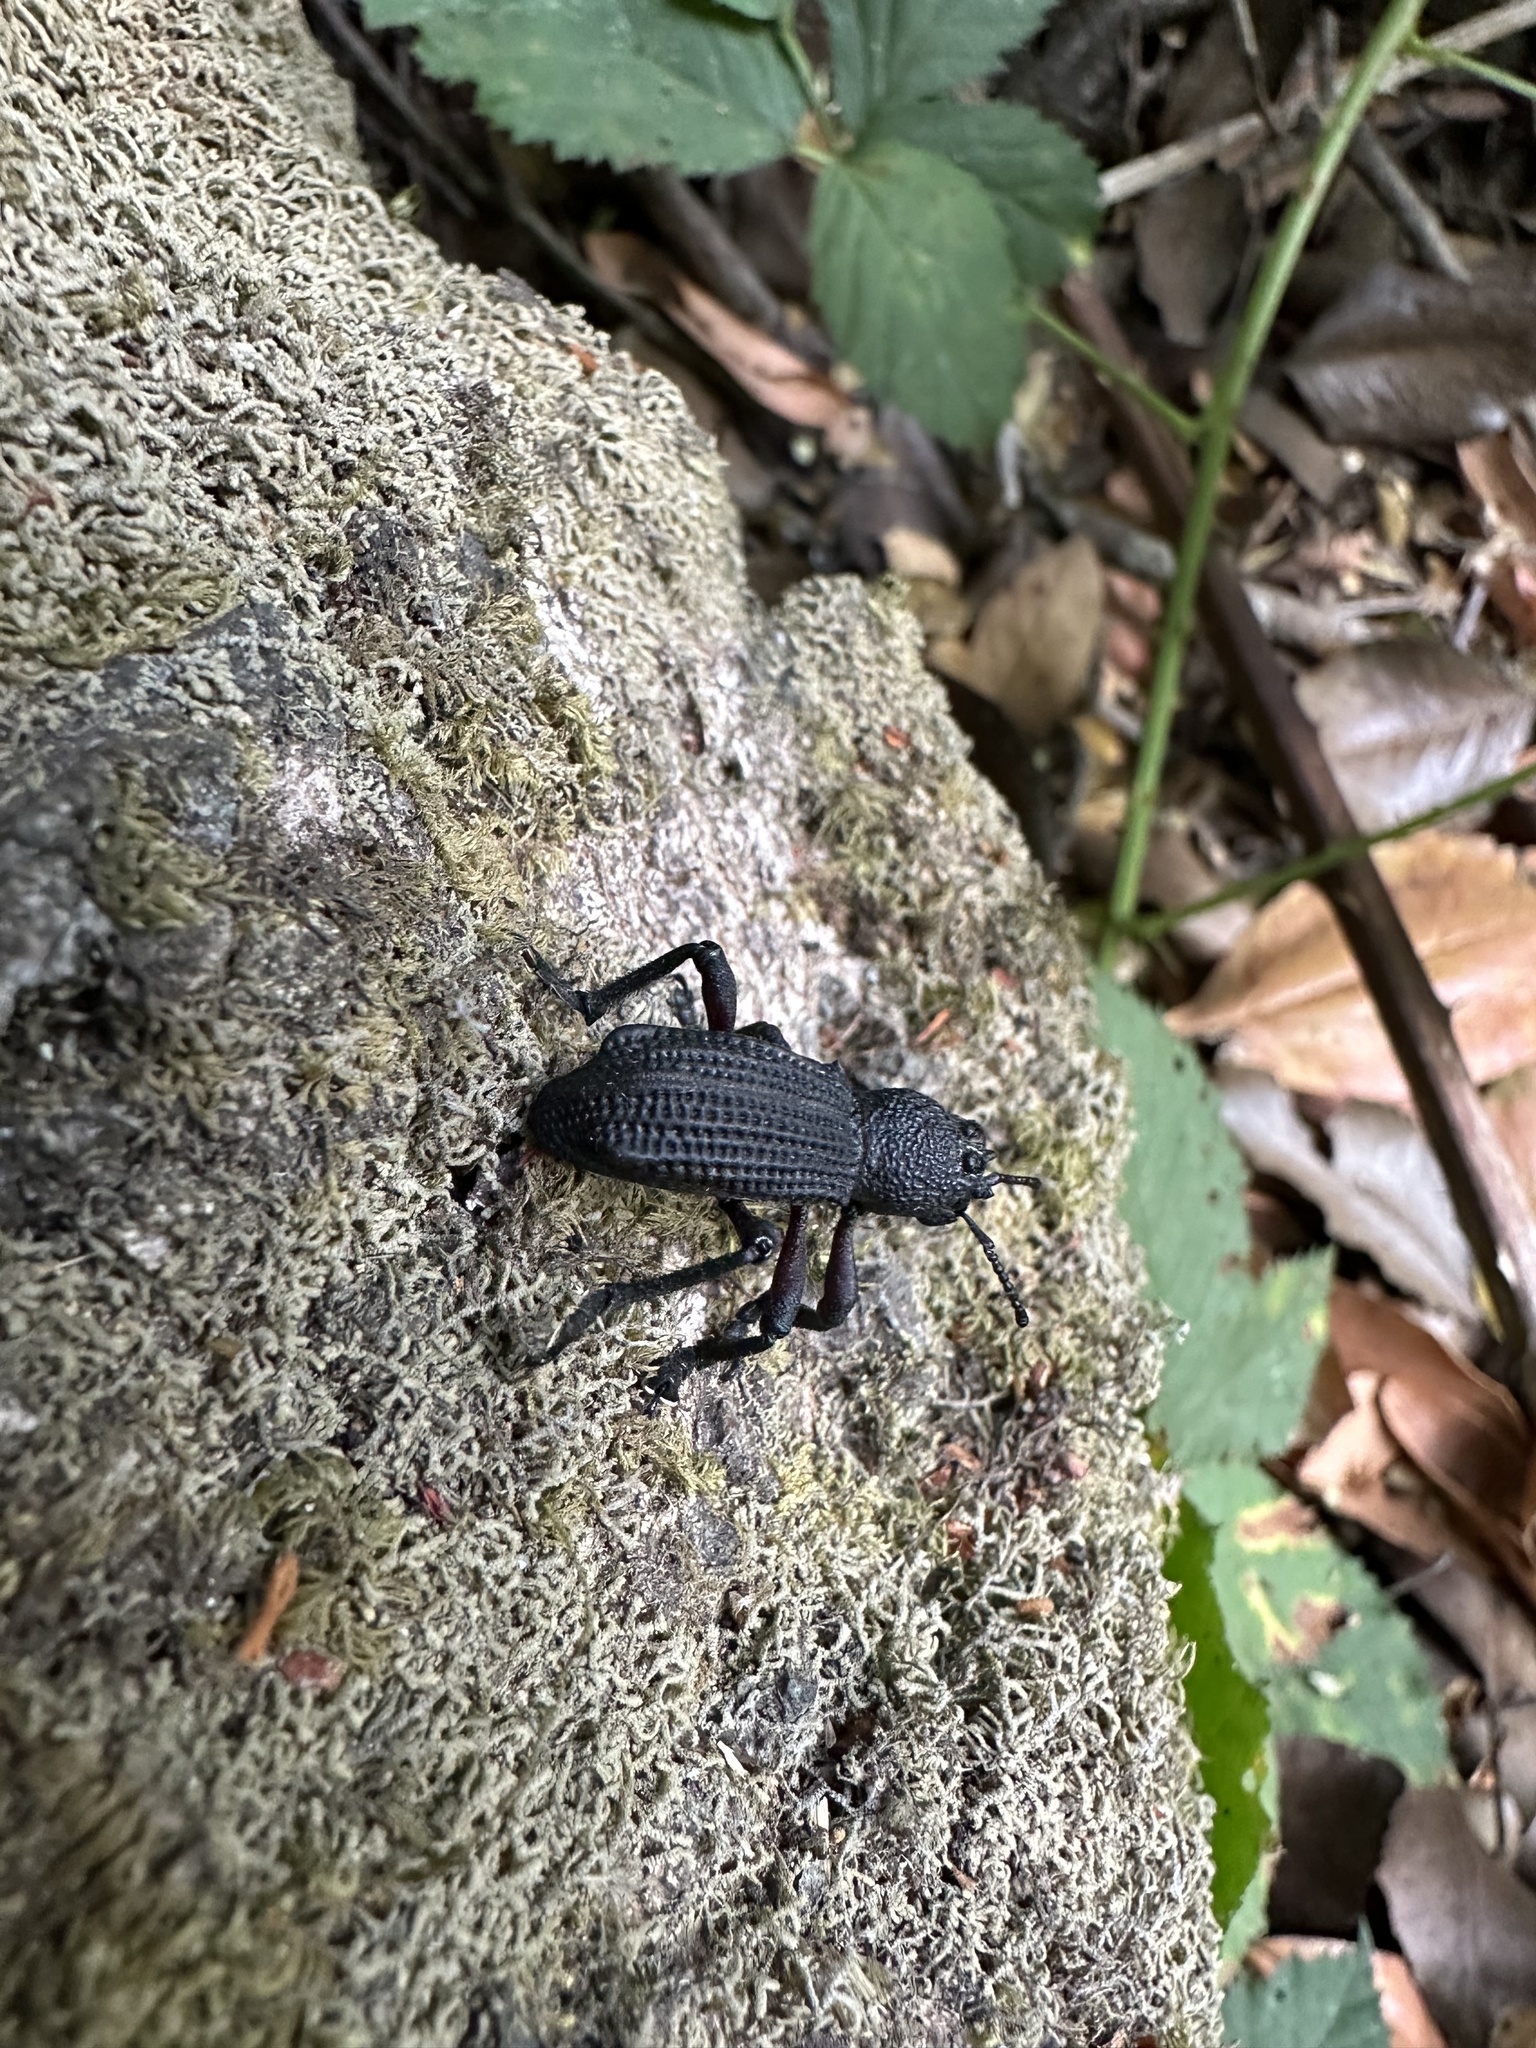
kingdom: Animalia
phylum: Arthropoda
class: Insecta
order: Coleoptera
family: Curculionidae
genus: Aegorhinus
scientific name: Aegorhinus
